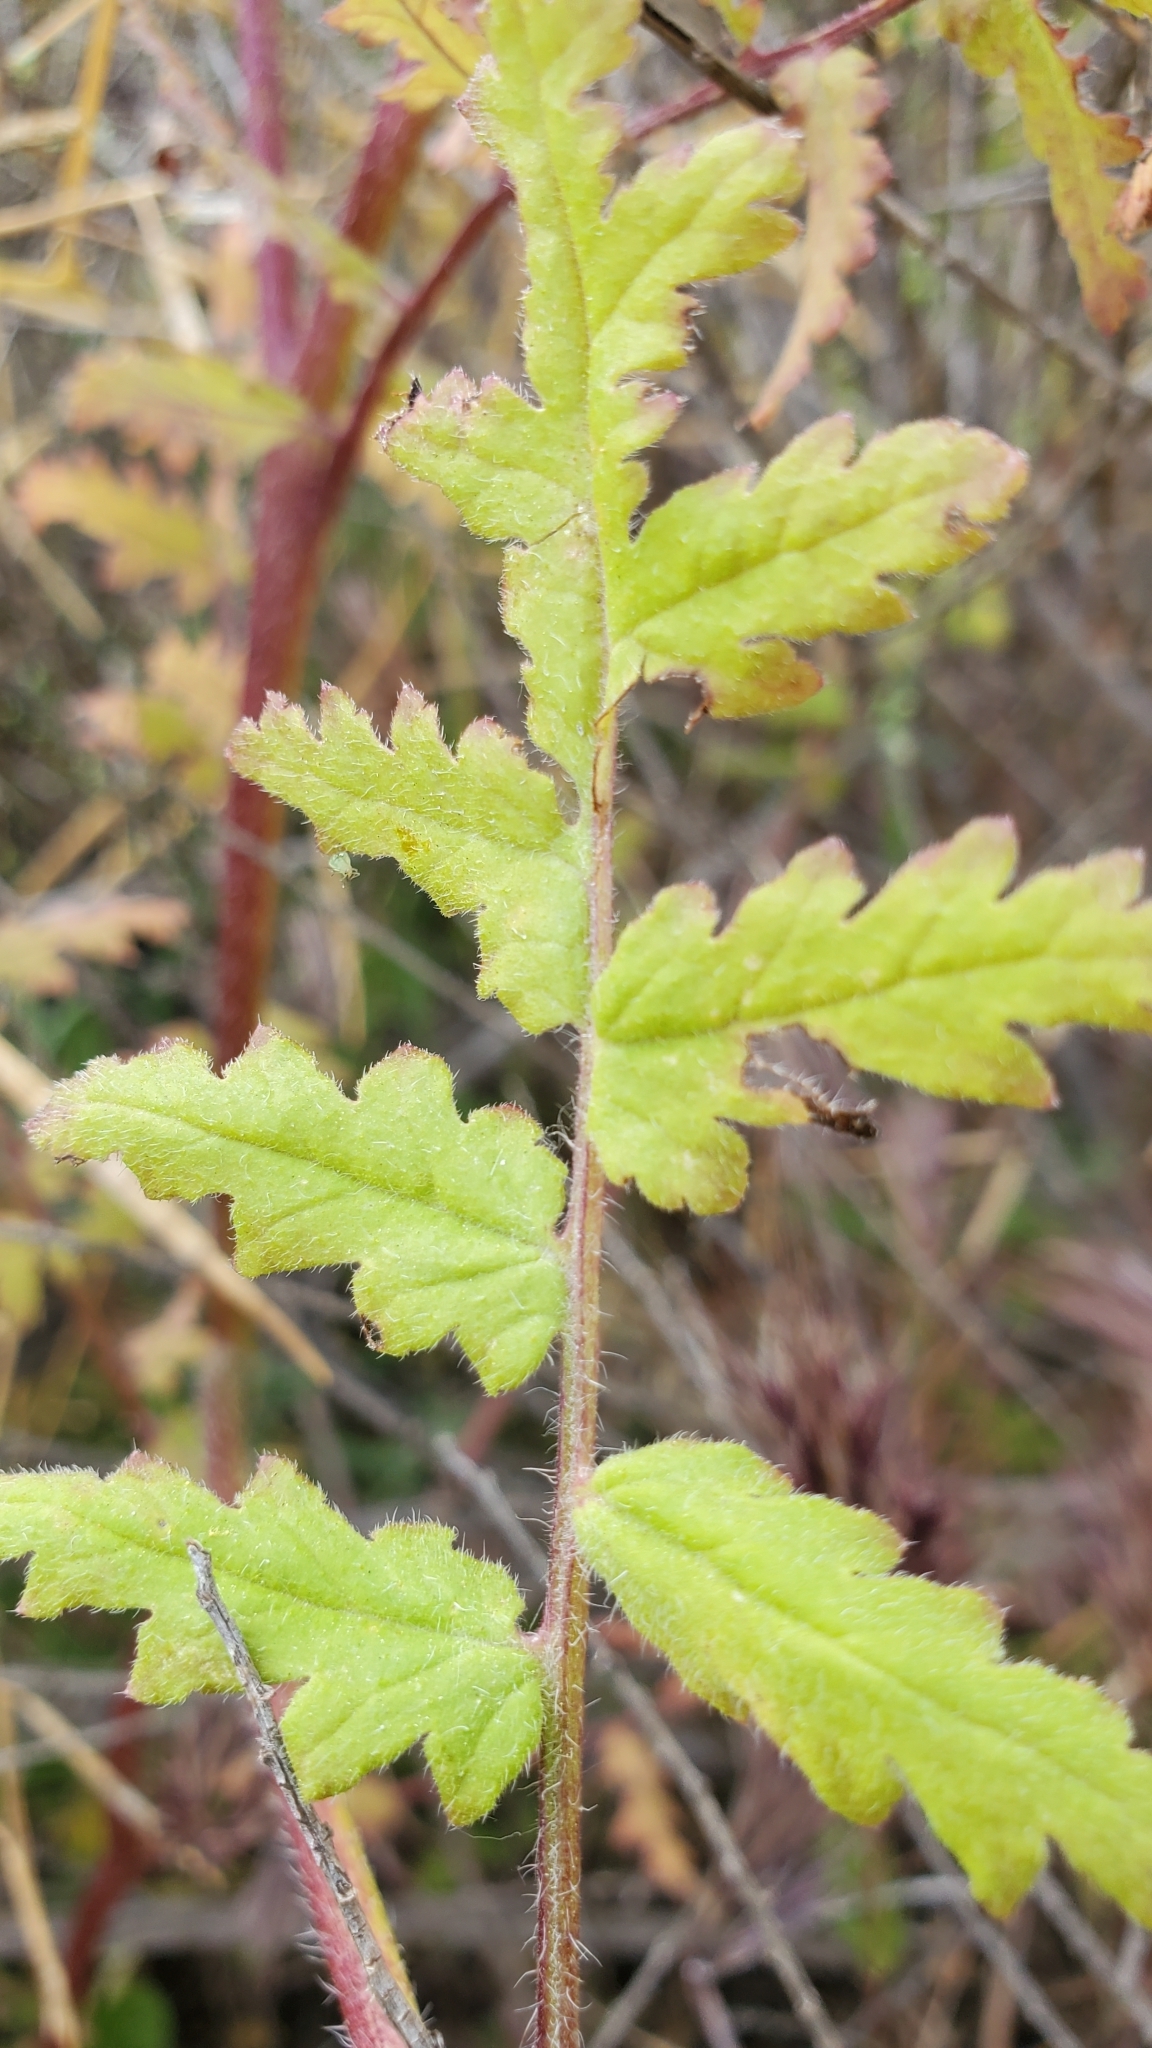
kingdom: Plantae
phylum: Tracheophyta
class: Magnoliopsida
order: Boraginales
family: Hydrophyllaceae
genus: Phacelia
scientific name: Phacelia distans
